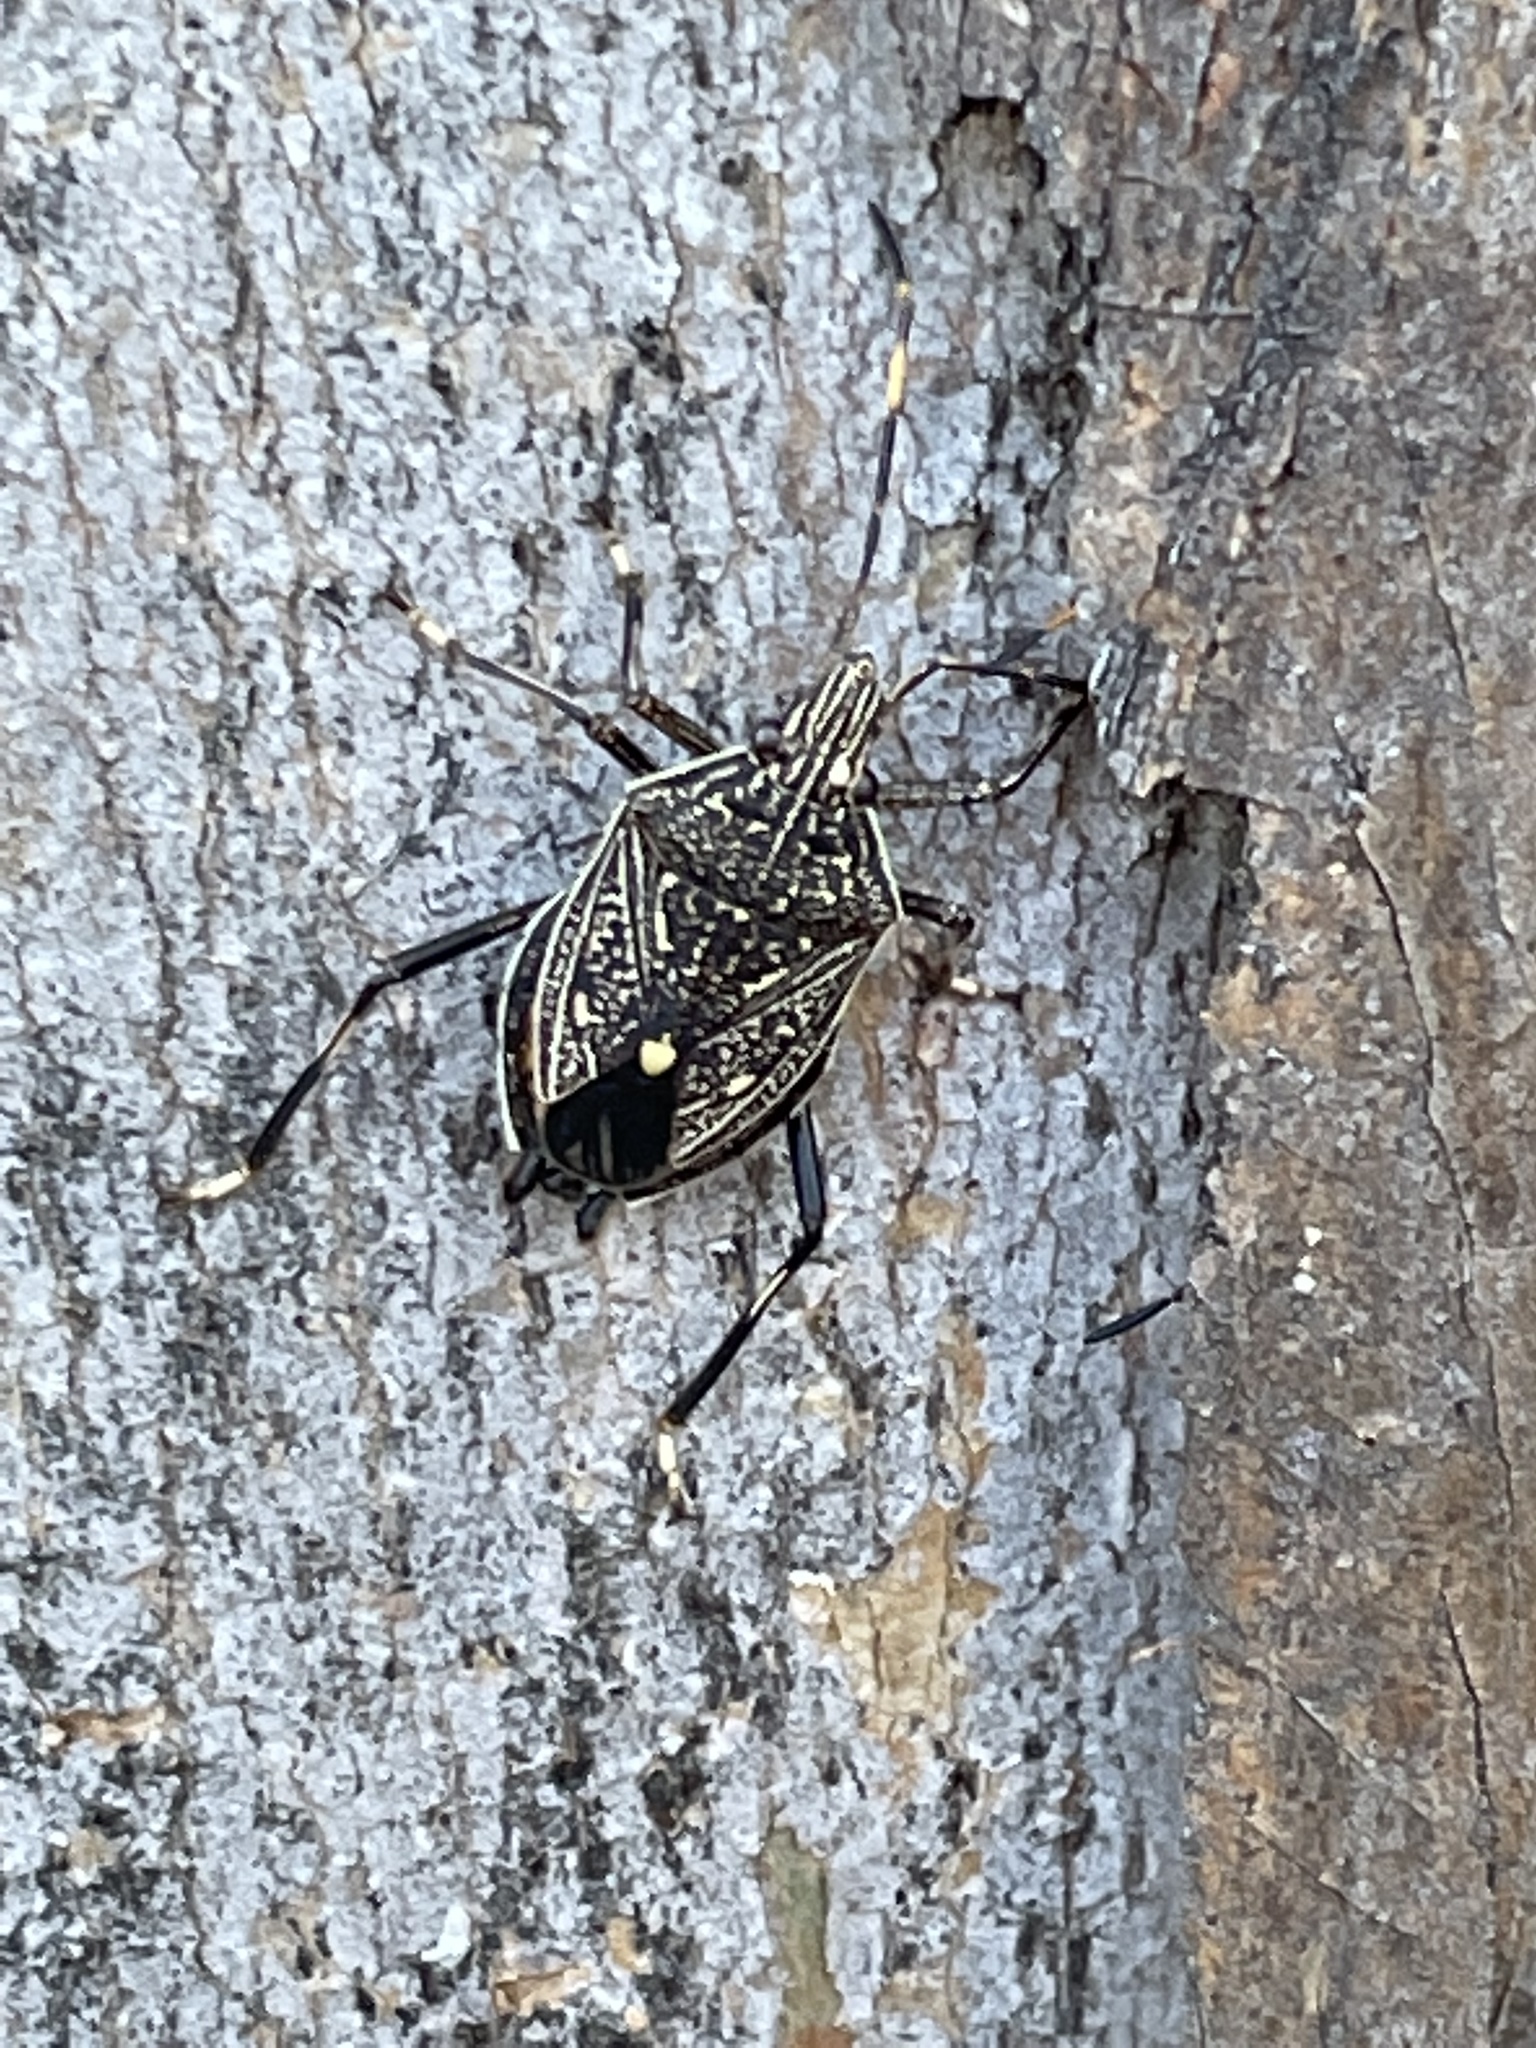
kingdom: Animalia
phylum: Arthropoda
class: Insecta
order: Hemiptera
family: Pentatomidae
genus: Theseus
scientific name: Theseus modestus
